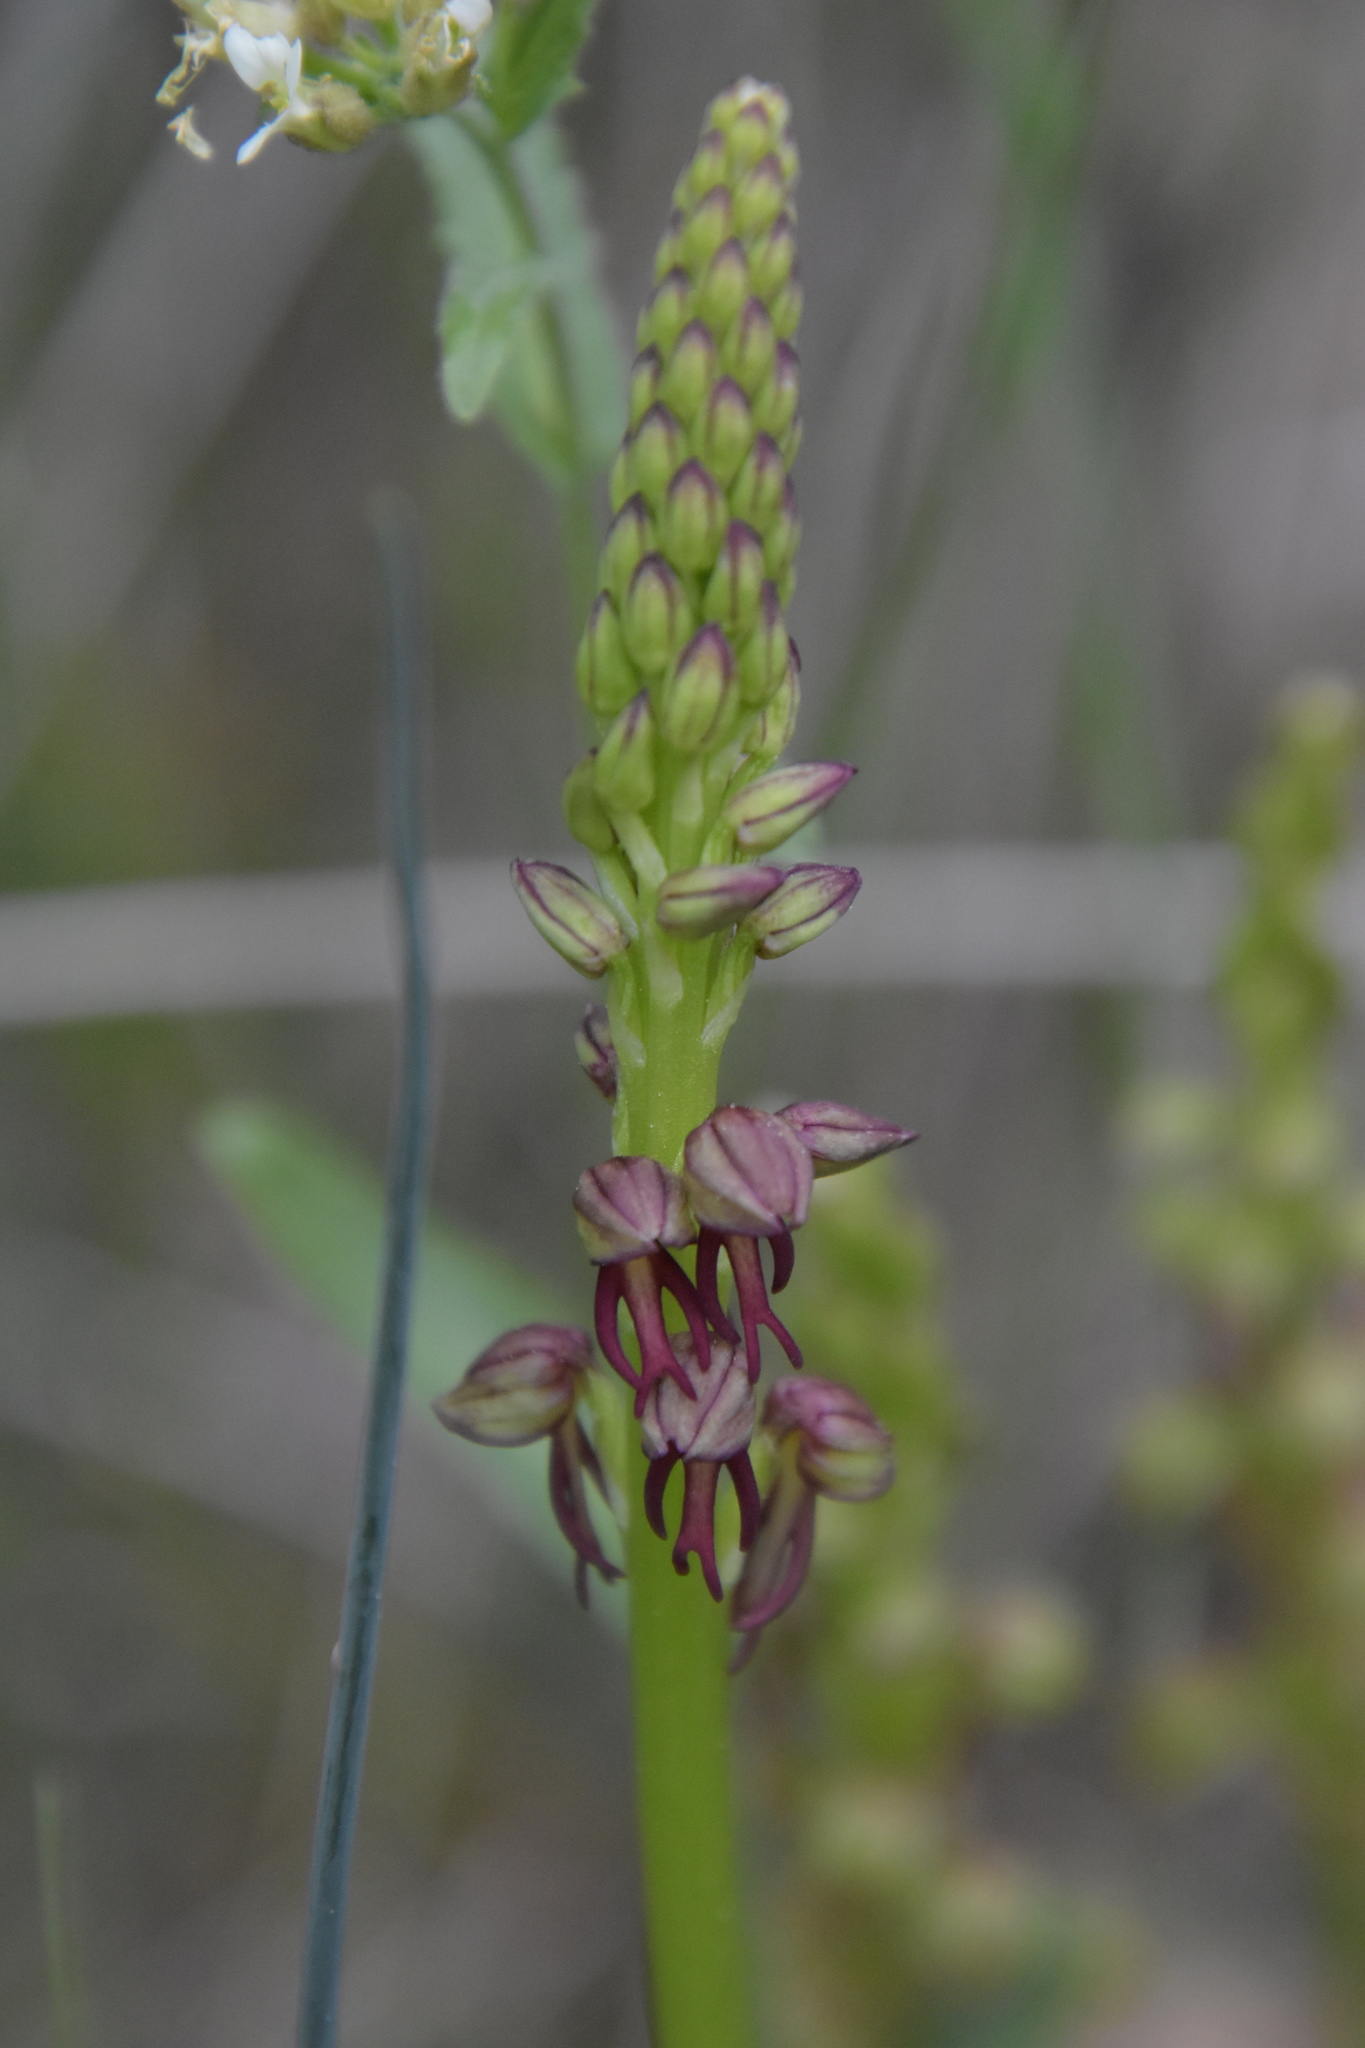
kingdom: Plantae
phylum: Tracheophyta
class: Liliopsida
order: Asparagales
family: Orchidaceae
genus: Orchis
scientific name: Orchis anthropophora
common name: Man orchid
